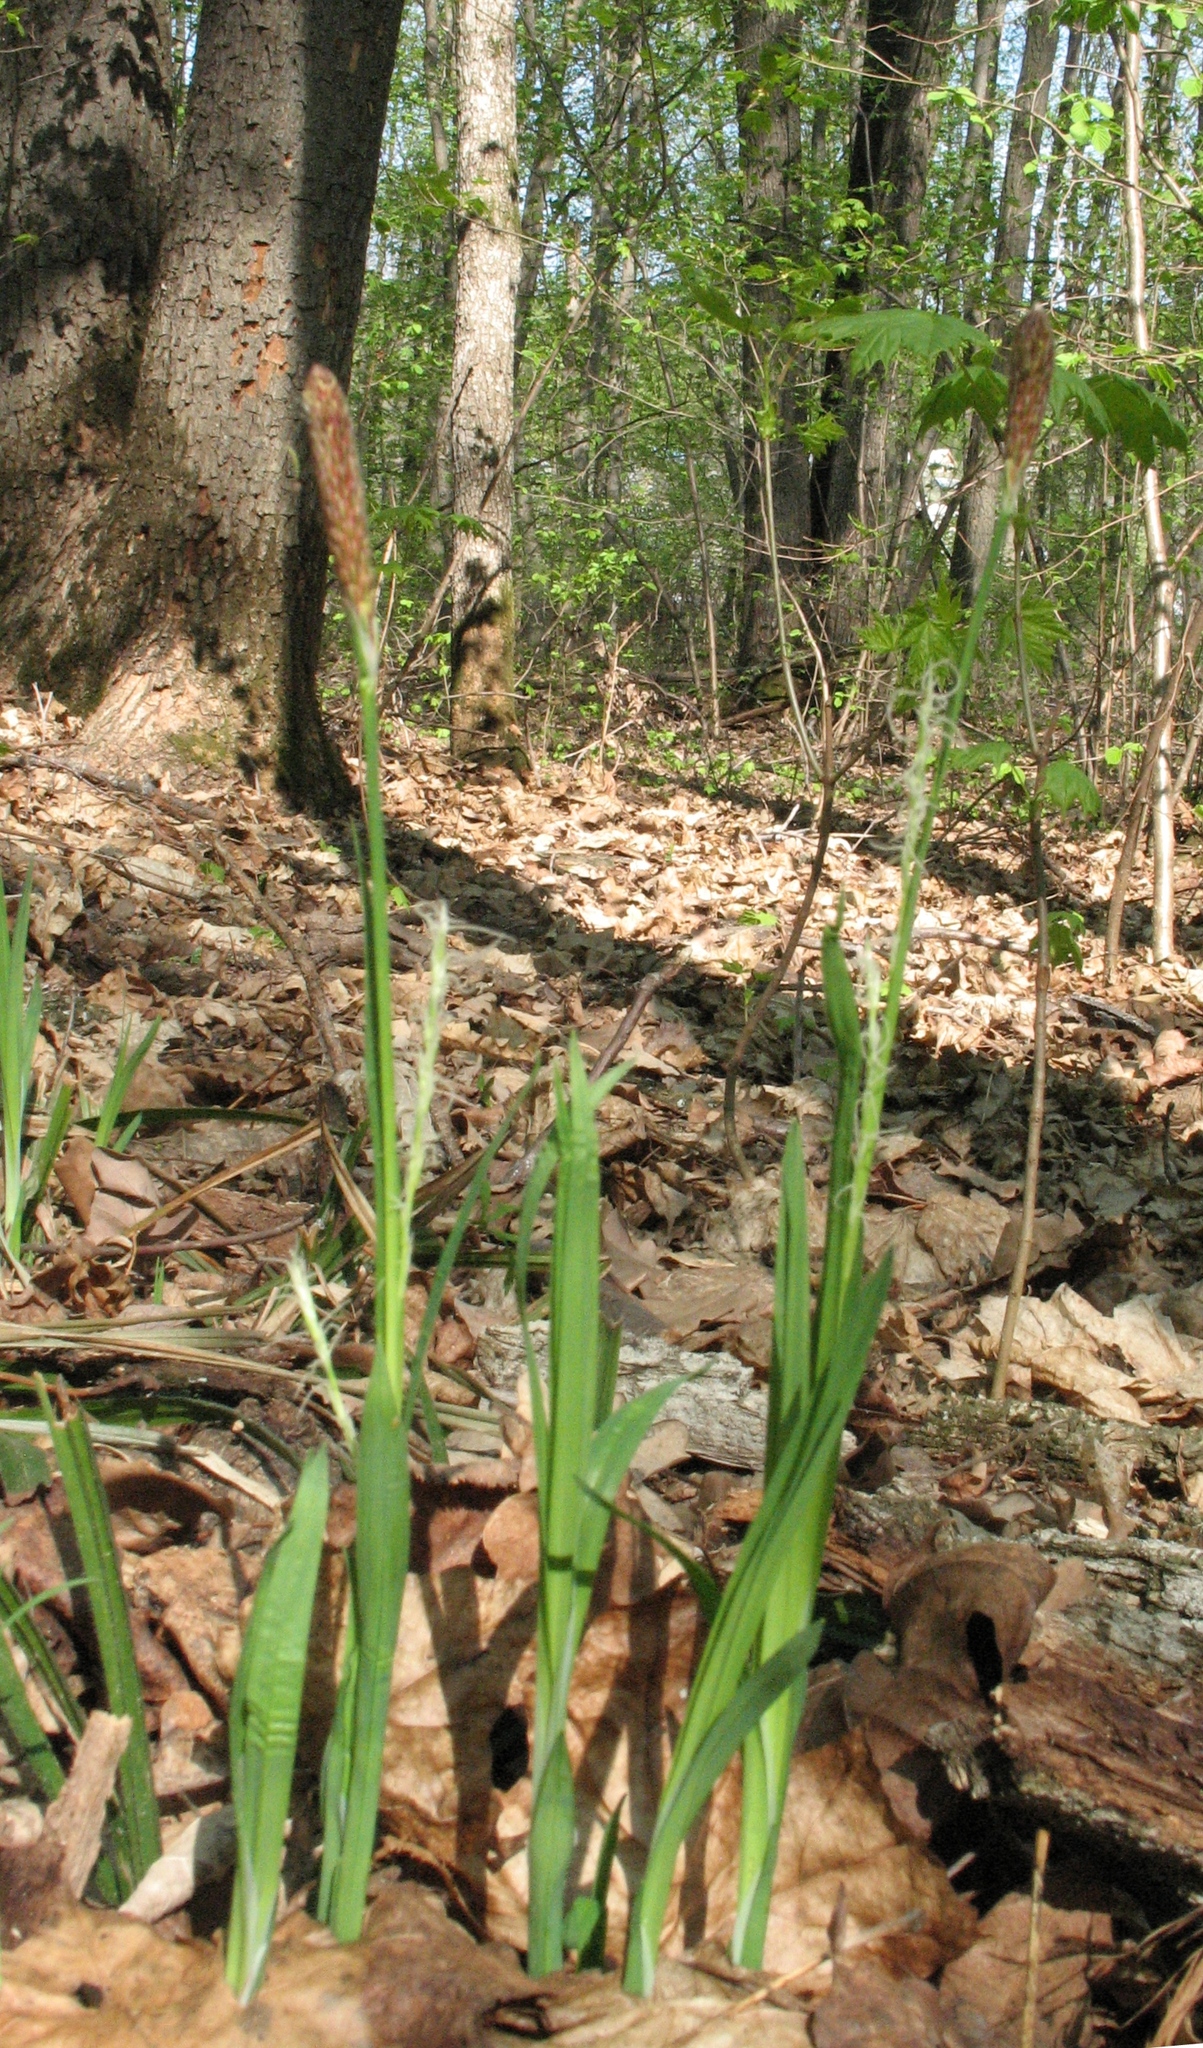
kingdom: Plantae
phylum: Tracheophyta
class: Liliopsida
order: Poales
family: Cyperaceae
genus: Carex
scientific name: Carex pilosa
